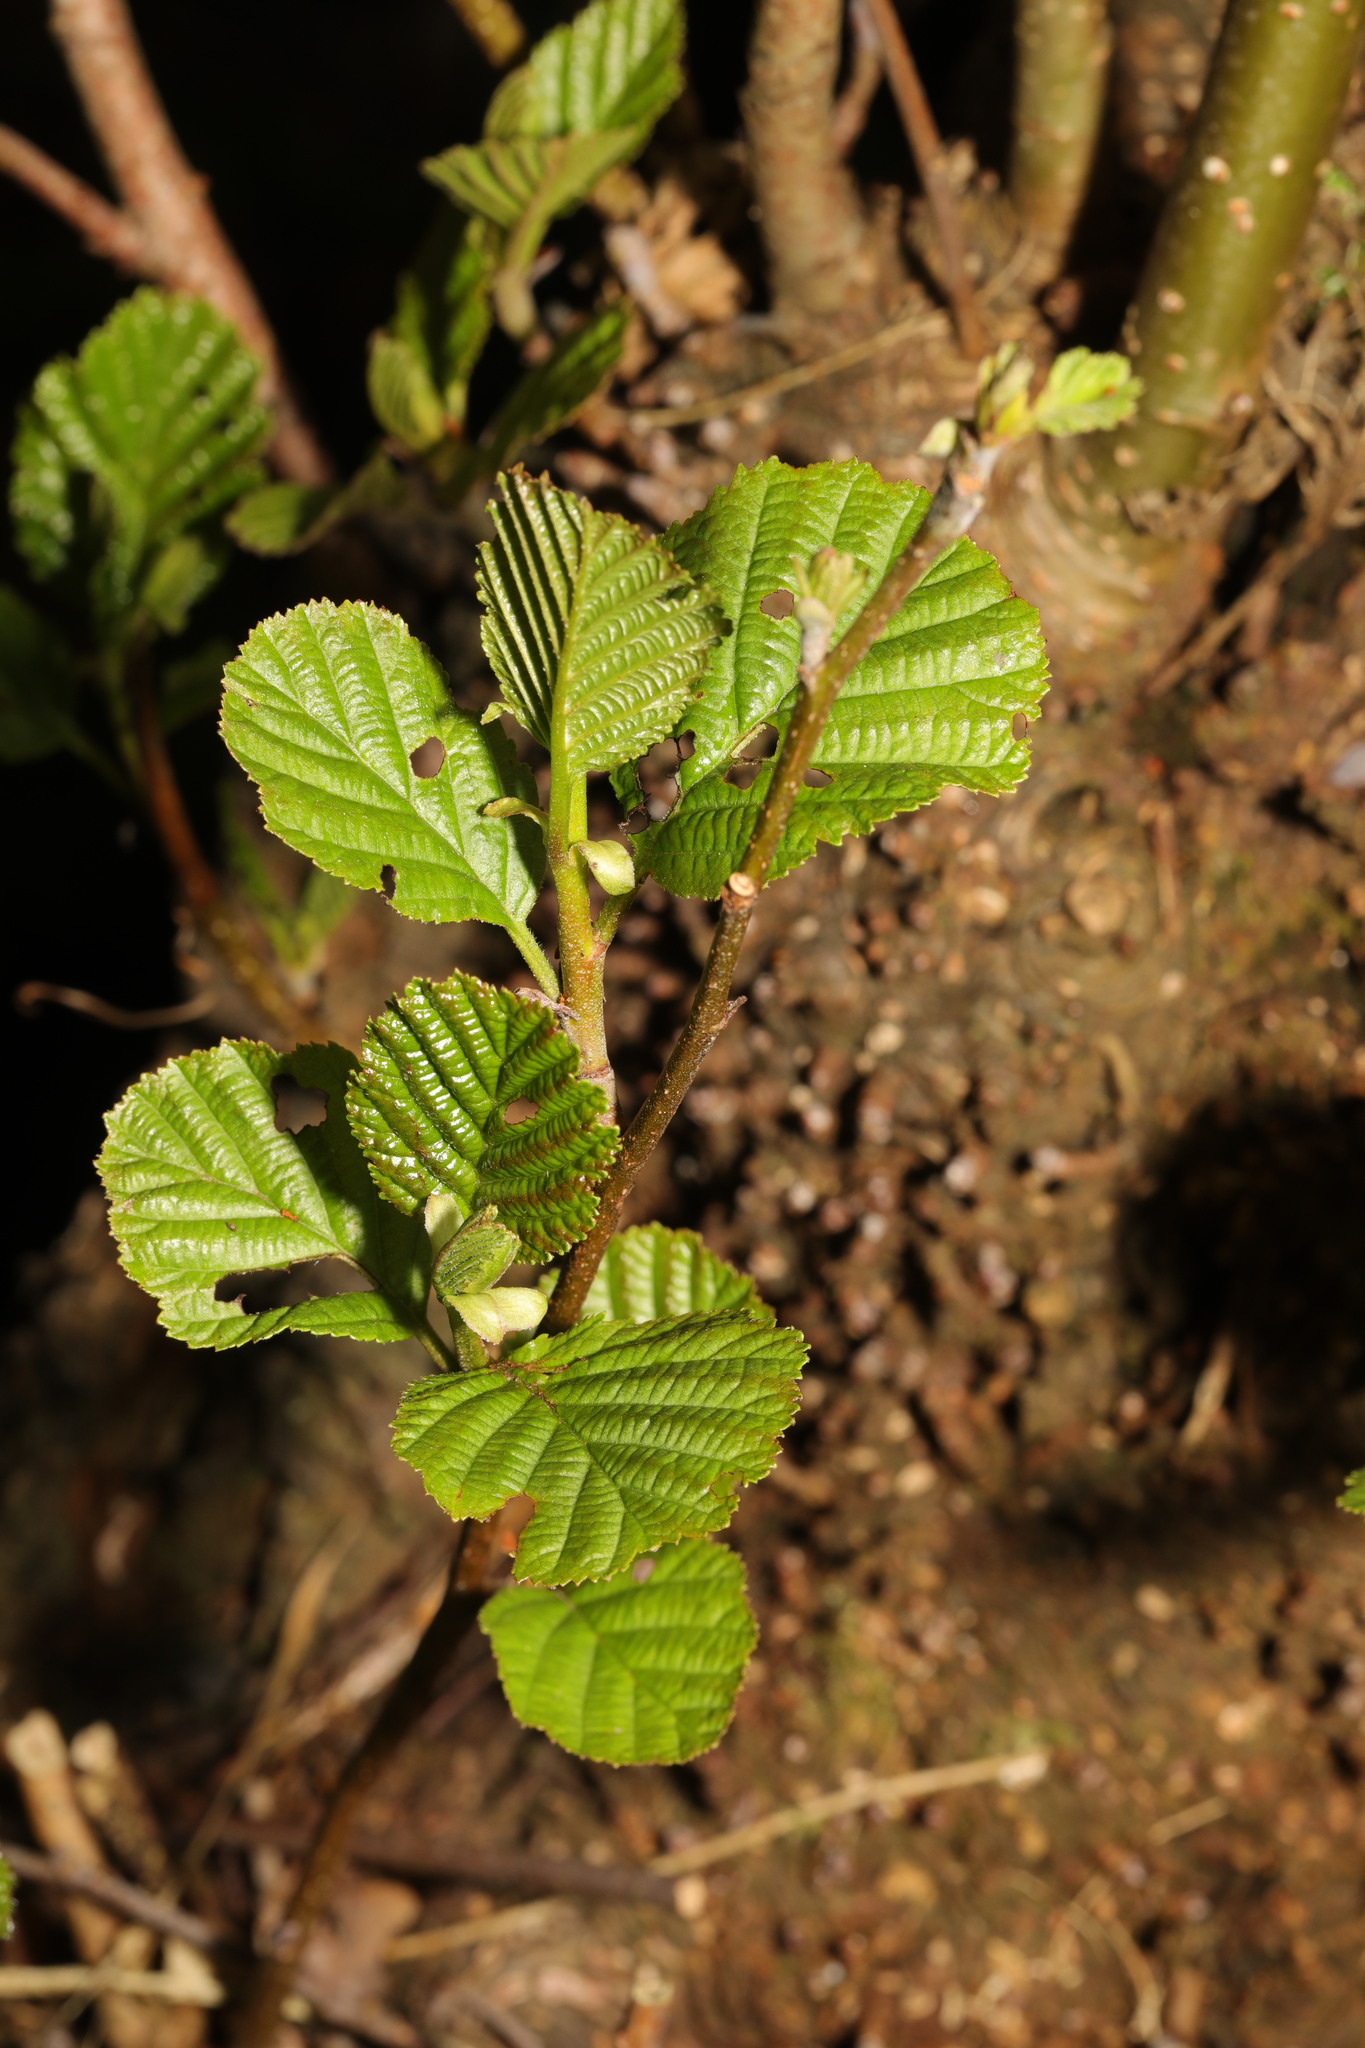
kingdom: Plantae
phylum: Tracheophyta
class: Magnoliopsida
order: Fagales
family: Betulaceae
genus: Alnus
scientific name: Alnus glutinosa
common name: Black alder
